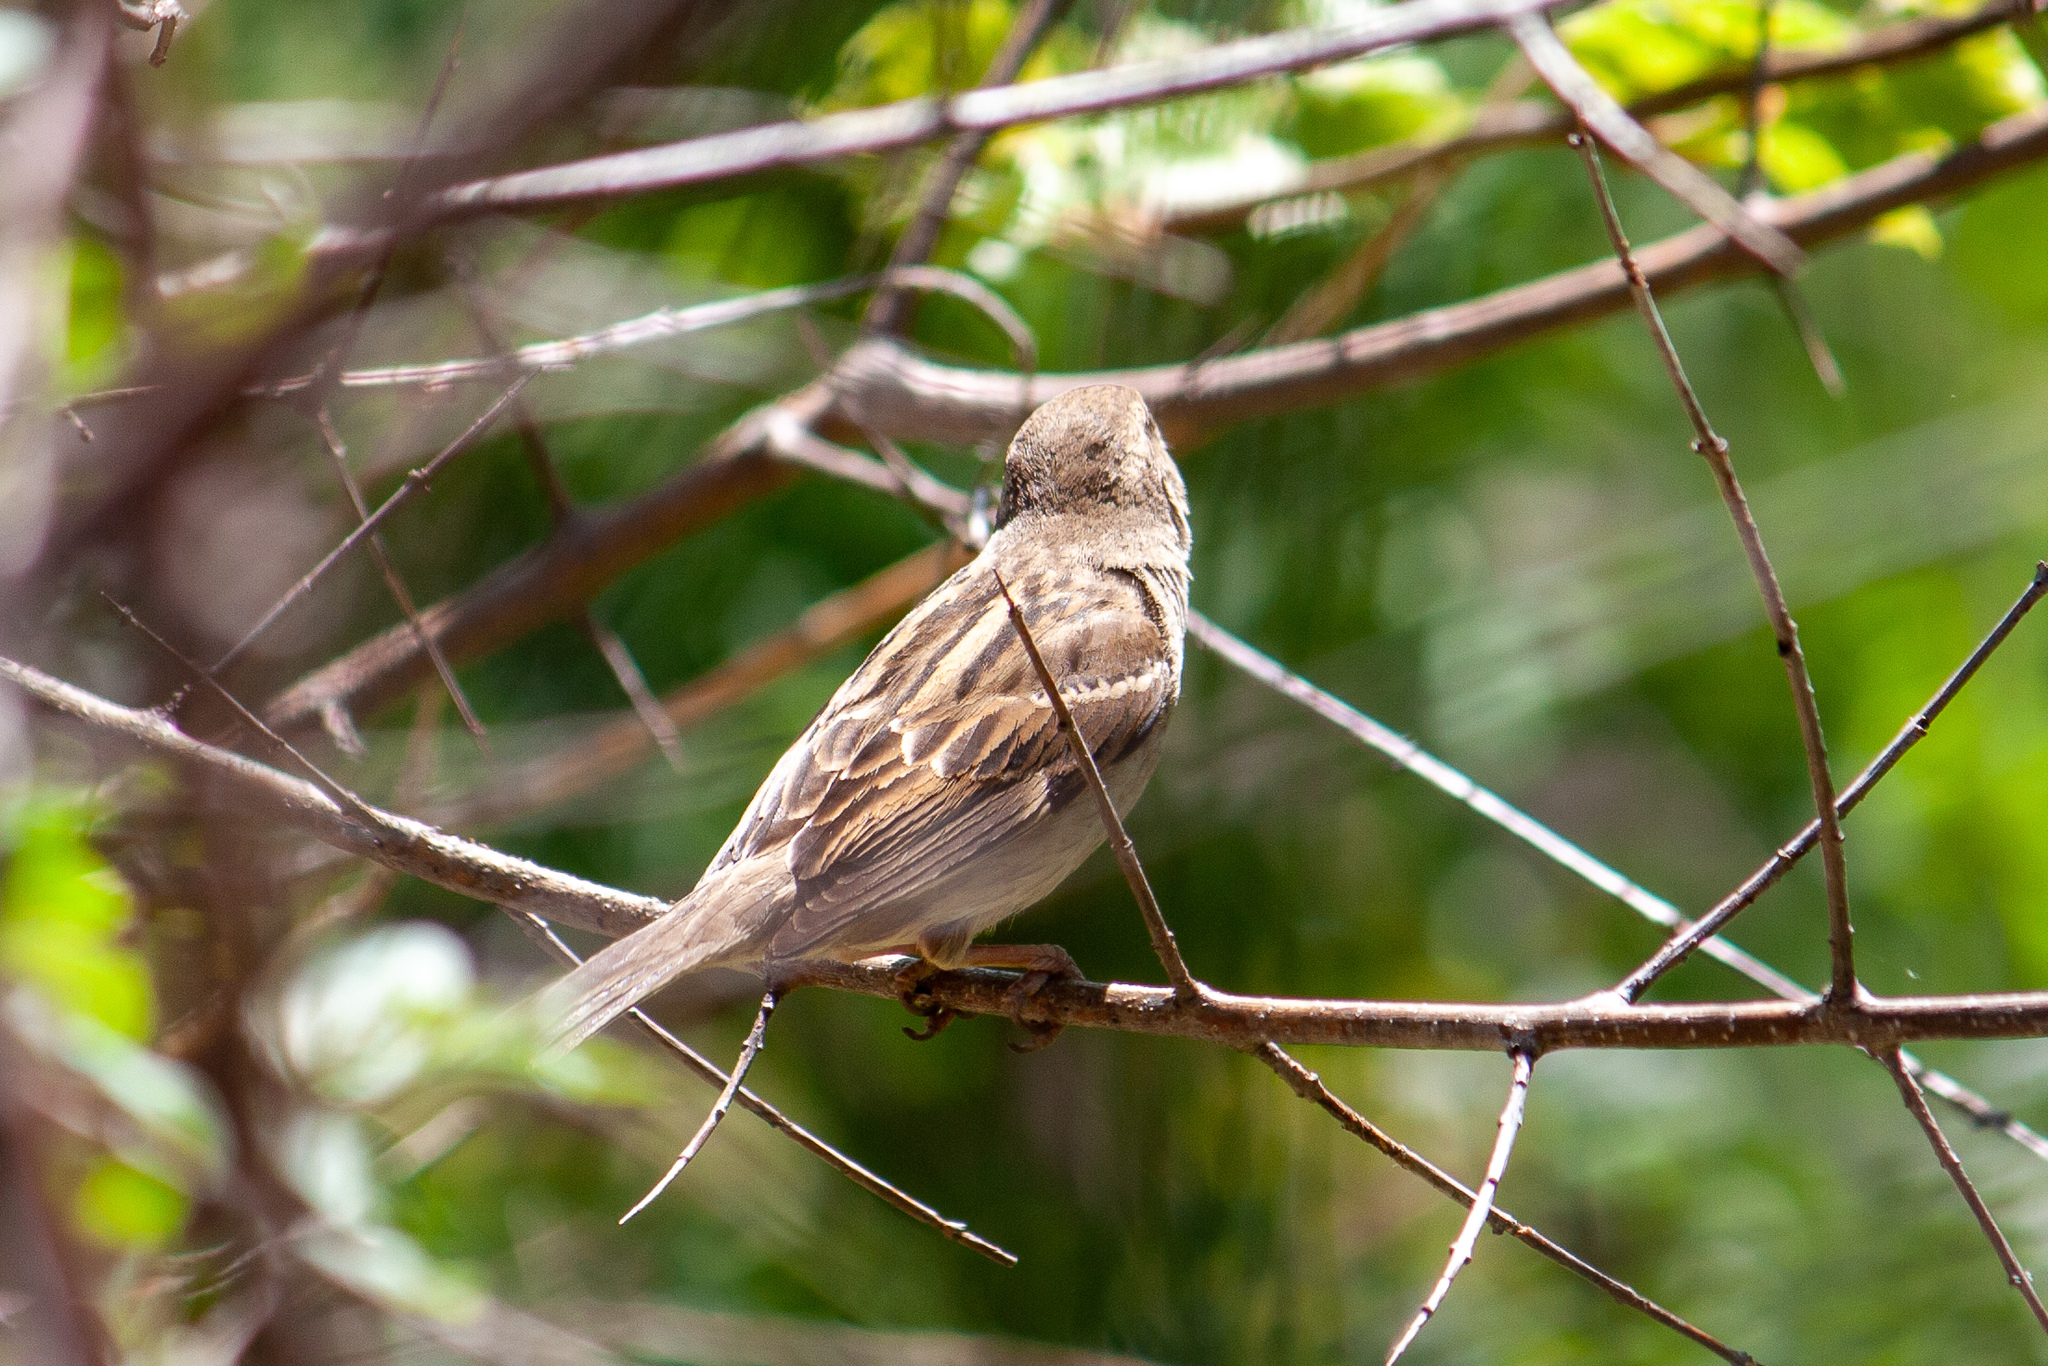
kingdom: Animalia
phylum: Chordata
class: Aves
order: Passeriformes
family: Passeridae
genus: Passer
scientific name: Passer domesticus
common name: House sparrow
